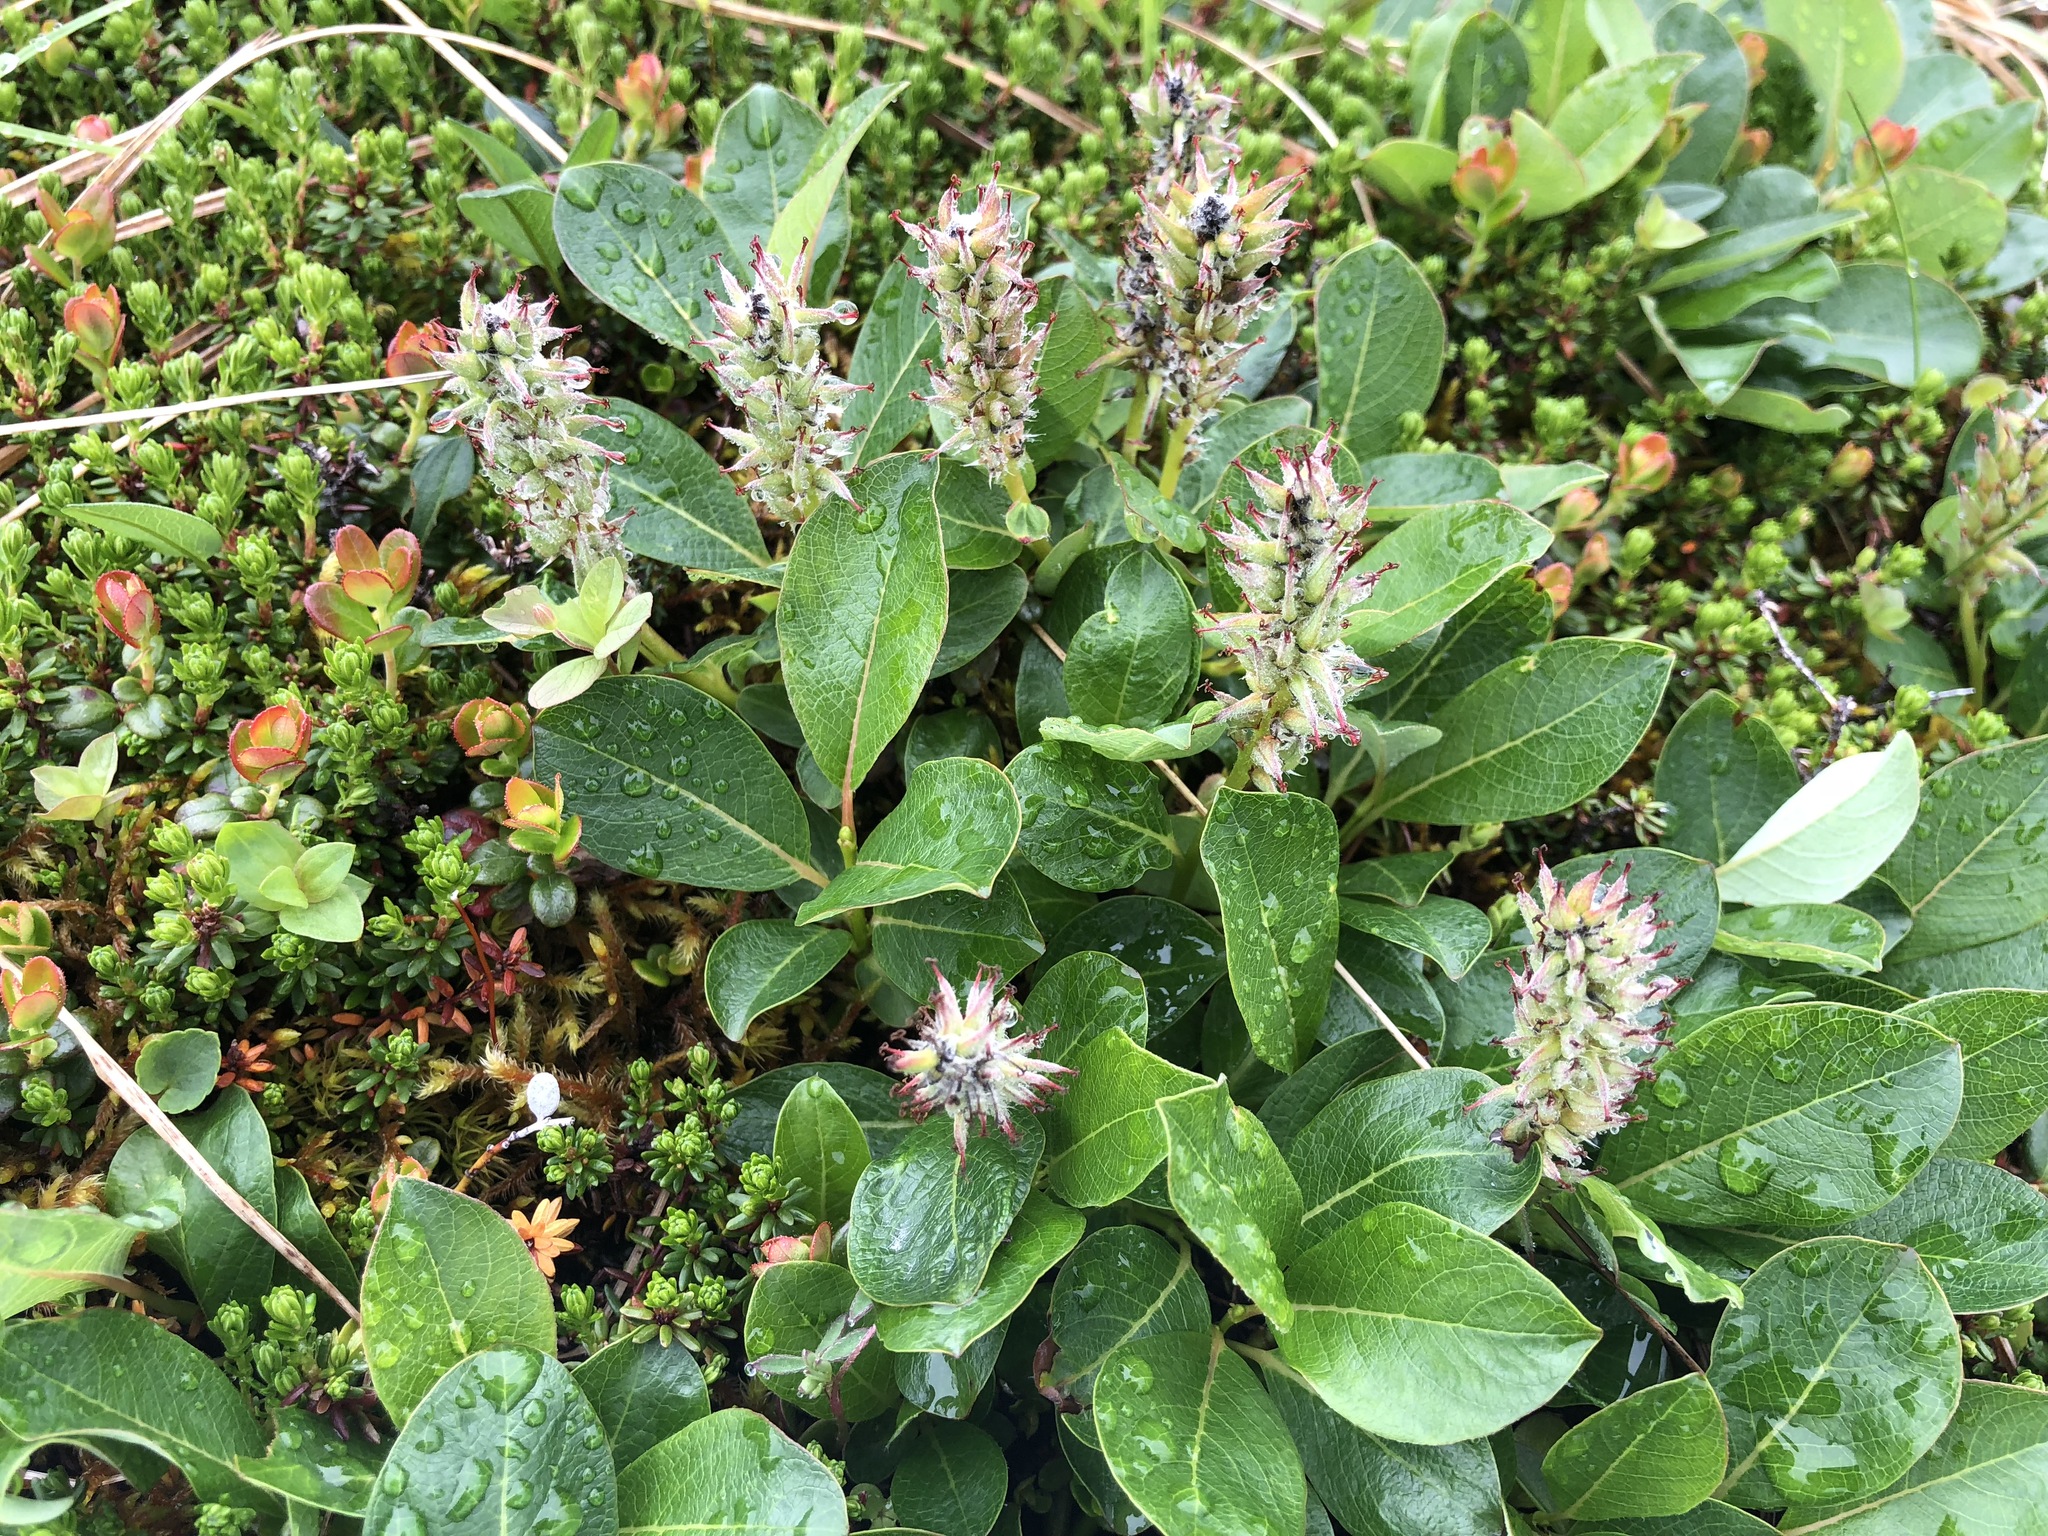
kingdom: Plantae
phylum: Tracheophyta
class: Magnoliopsida
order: Malpighiales
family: Salicaceae
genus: Salix
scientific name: Salix arctica
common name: Arctic willow
